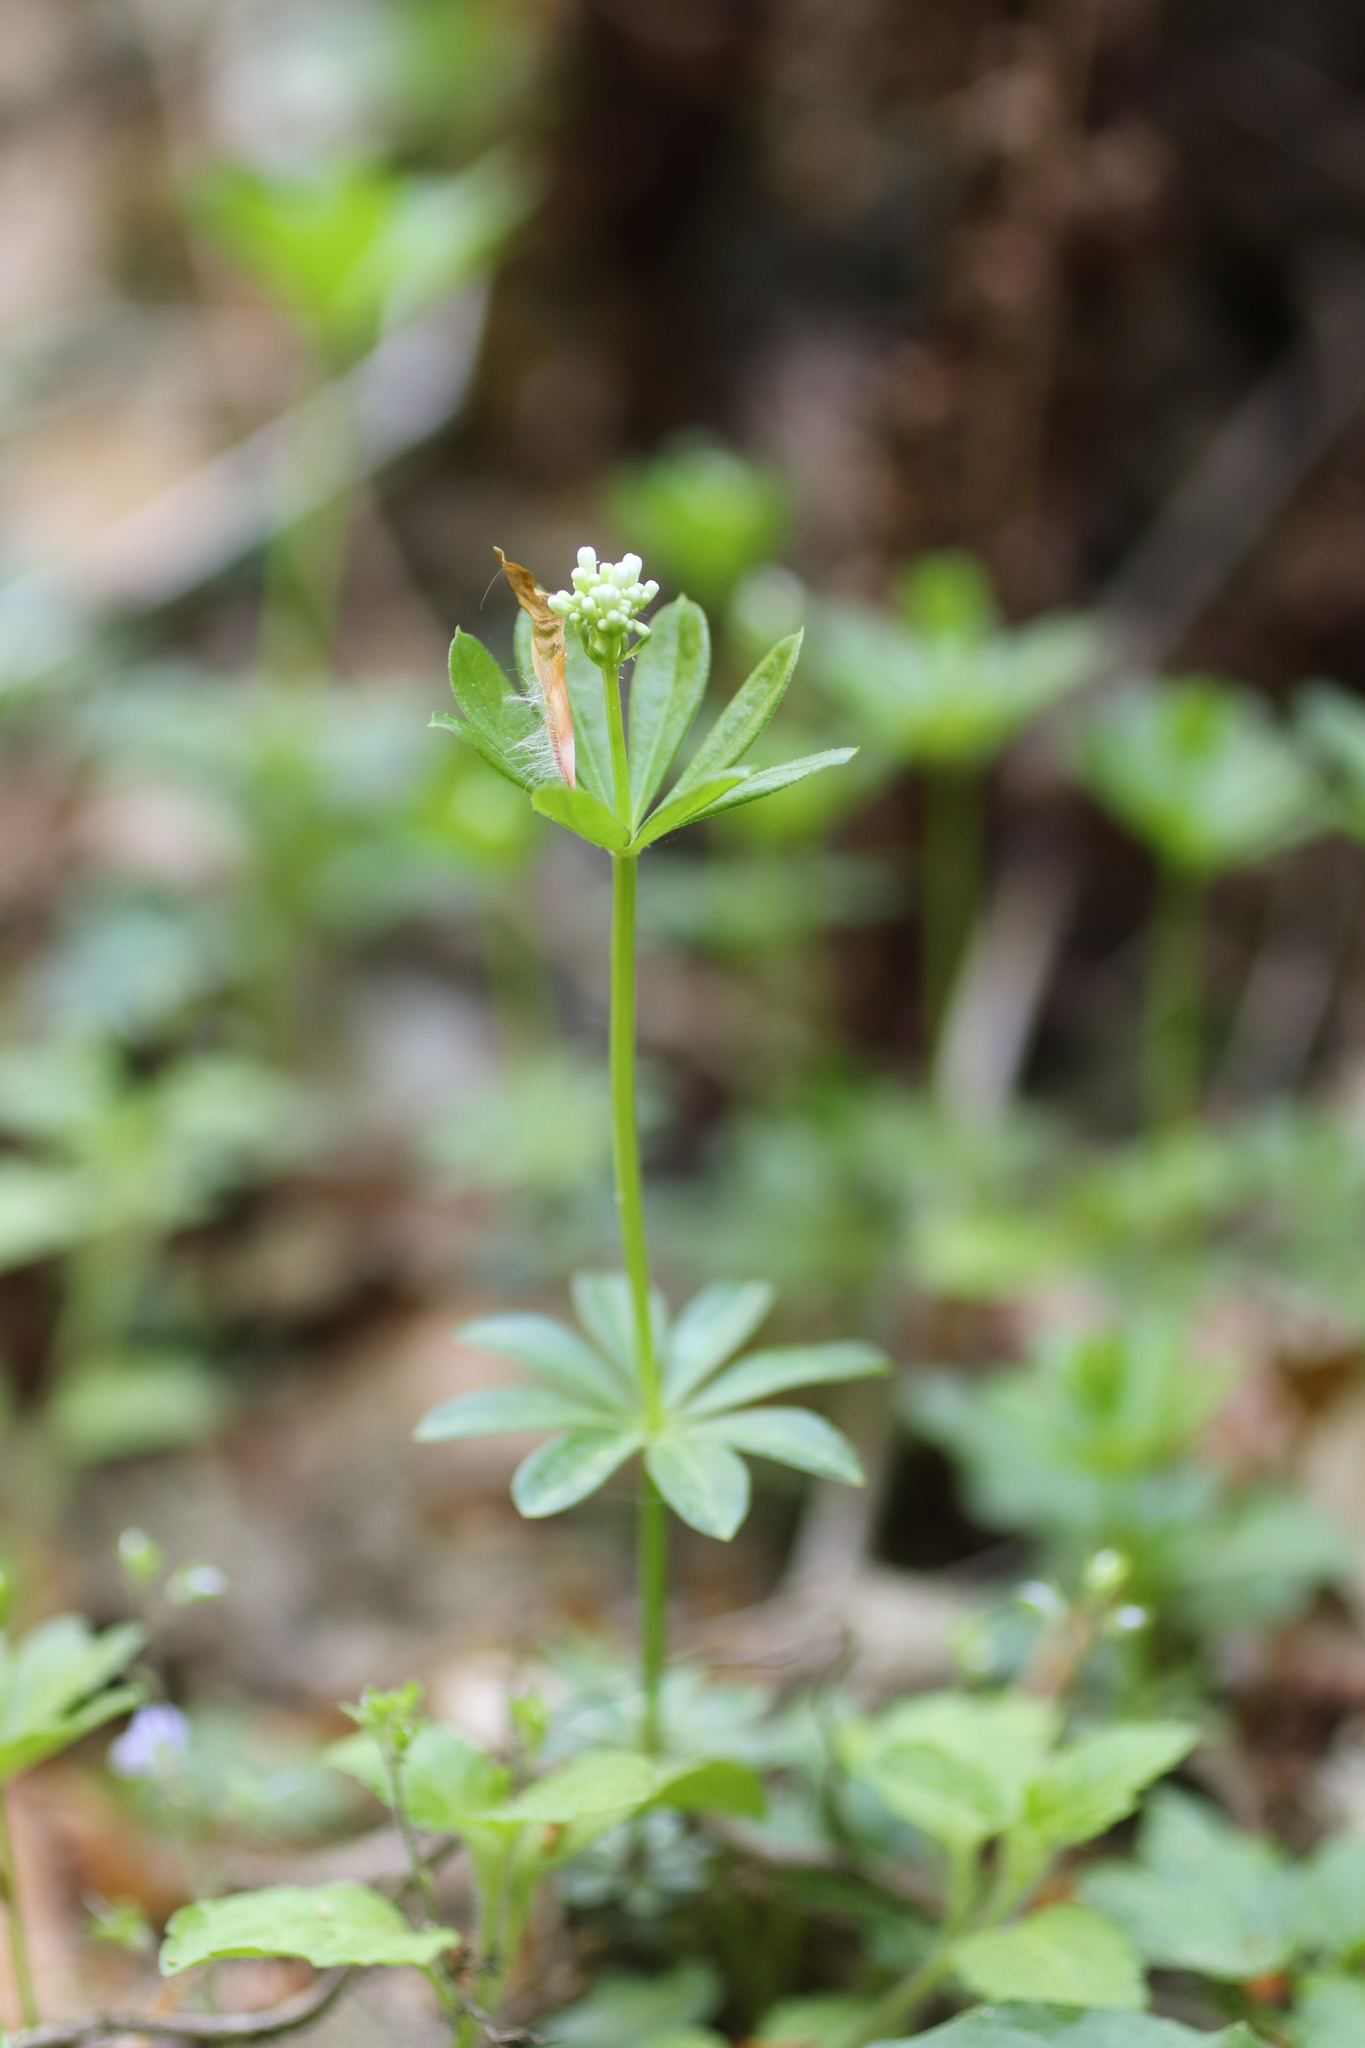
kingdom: Plantae
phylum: Tracheophyta
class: Magnoliopsida
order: Gentianales
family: Rubiaceae
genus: Galium
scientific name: Galium odoratum
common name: Sweet woodruff
